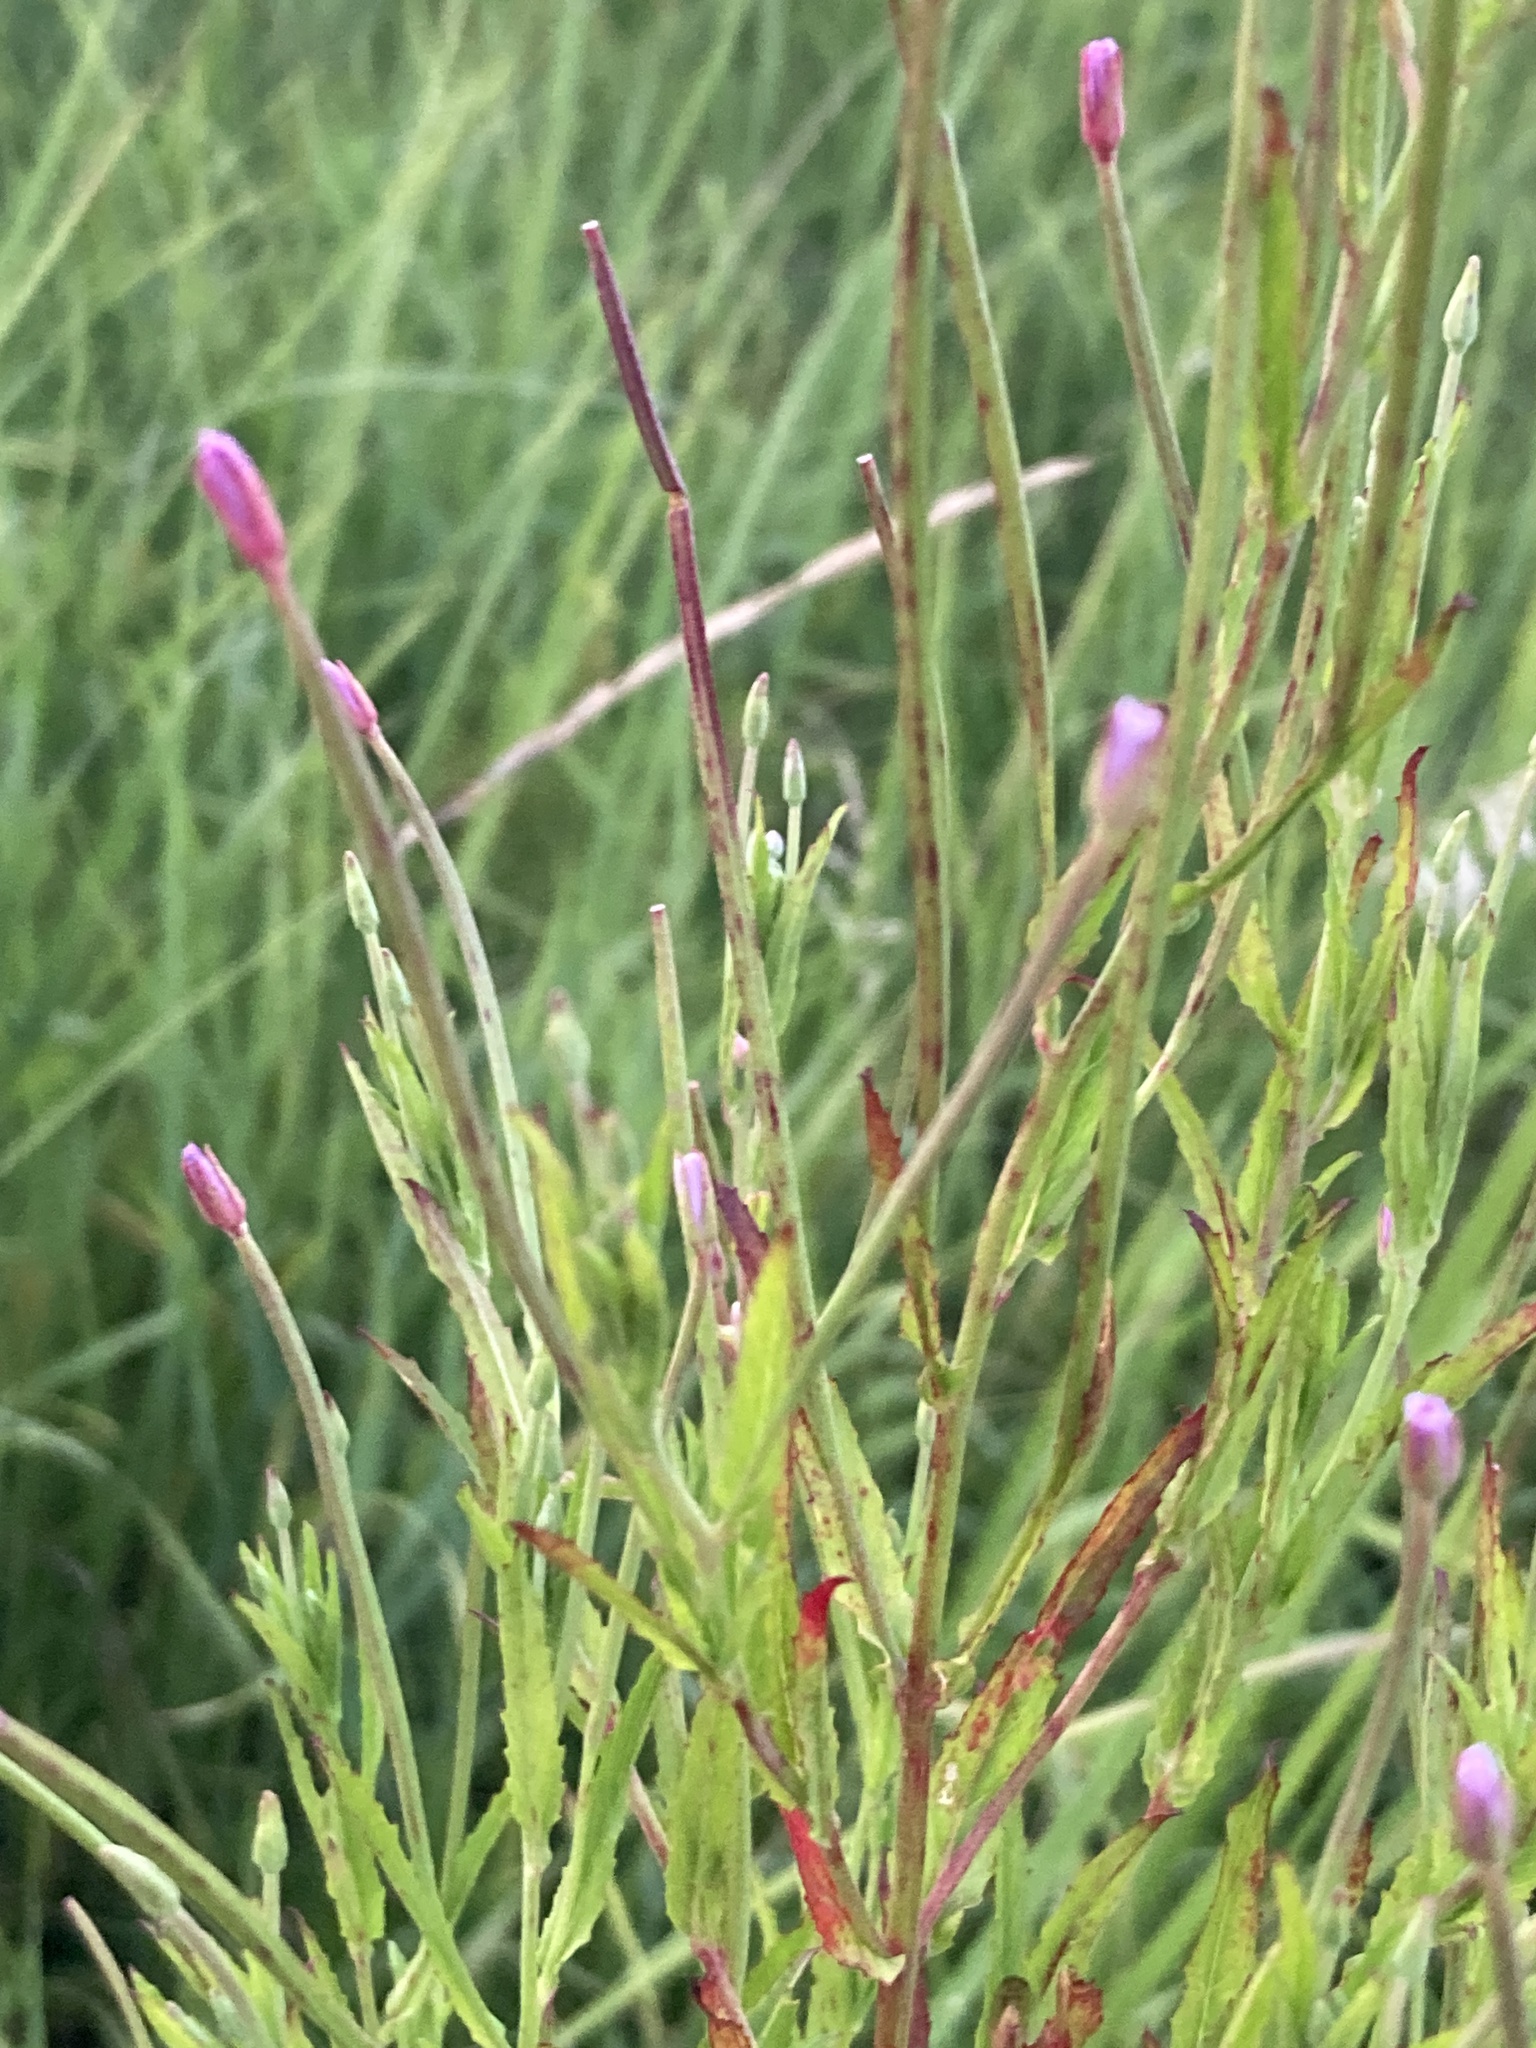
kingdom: Plantae
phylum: Tracheophyta
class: Magnoliopsida
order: Myrtales
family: Onagraceae
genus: Epilobium
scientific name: Epilobium tetragonum
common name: Square-stemmed willowherb
